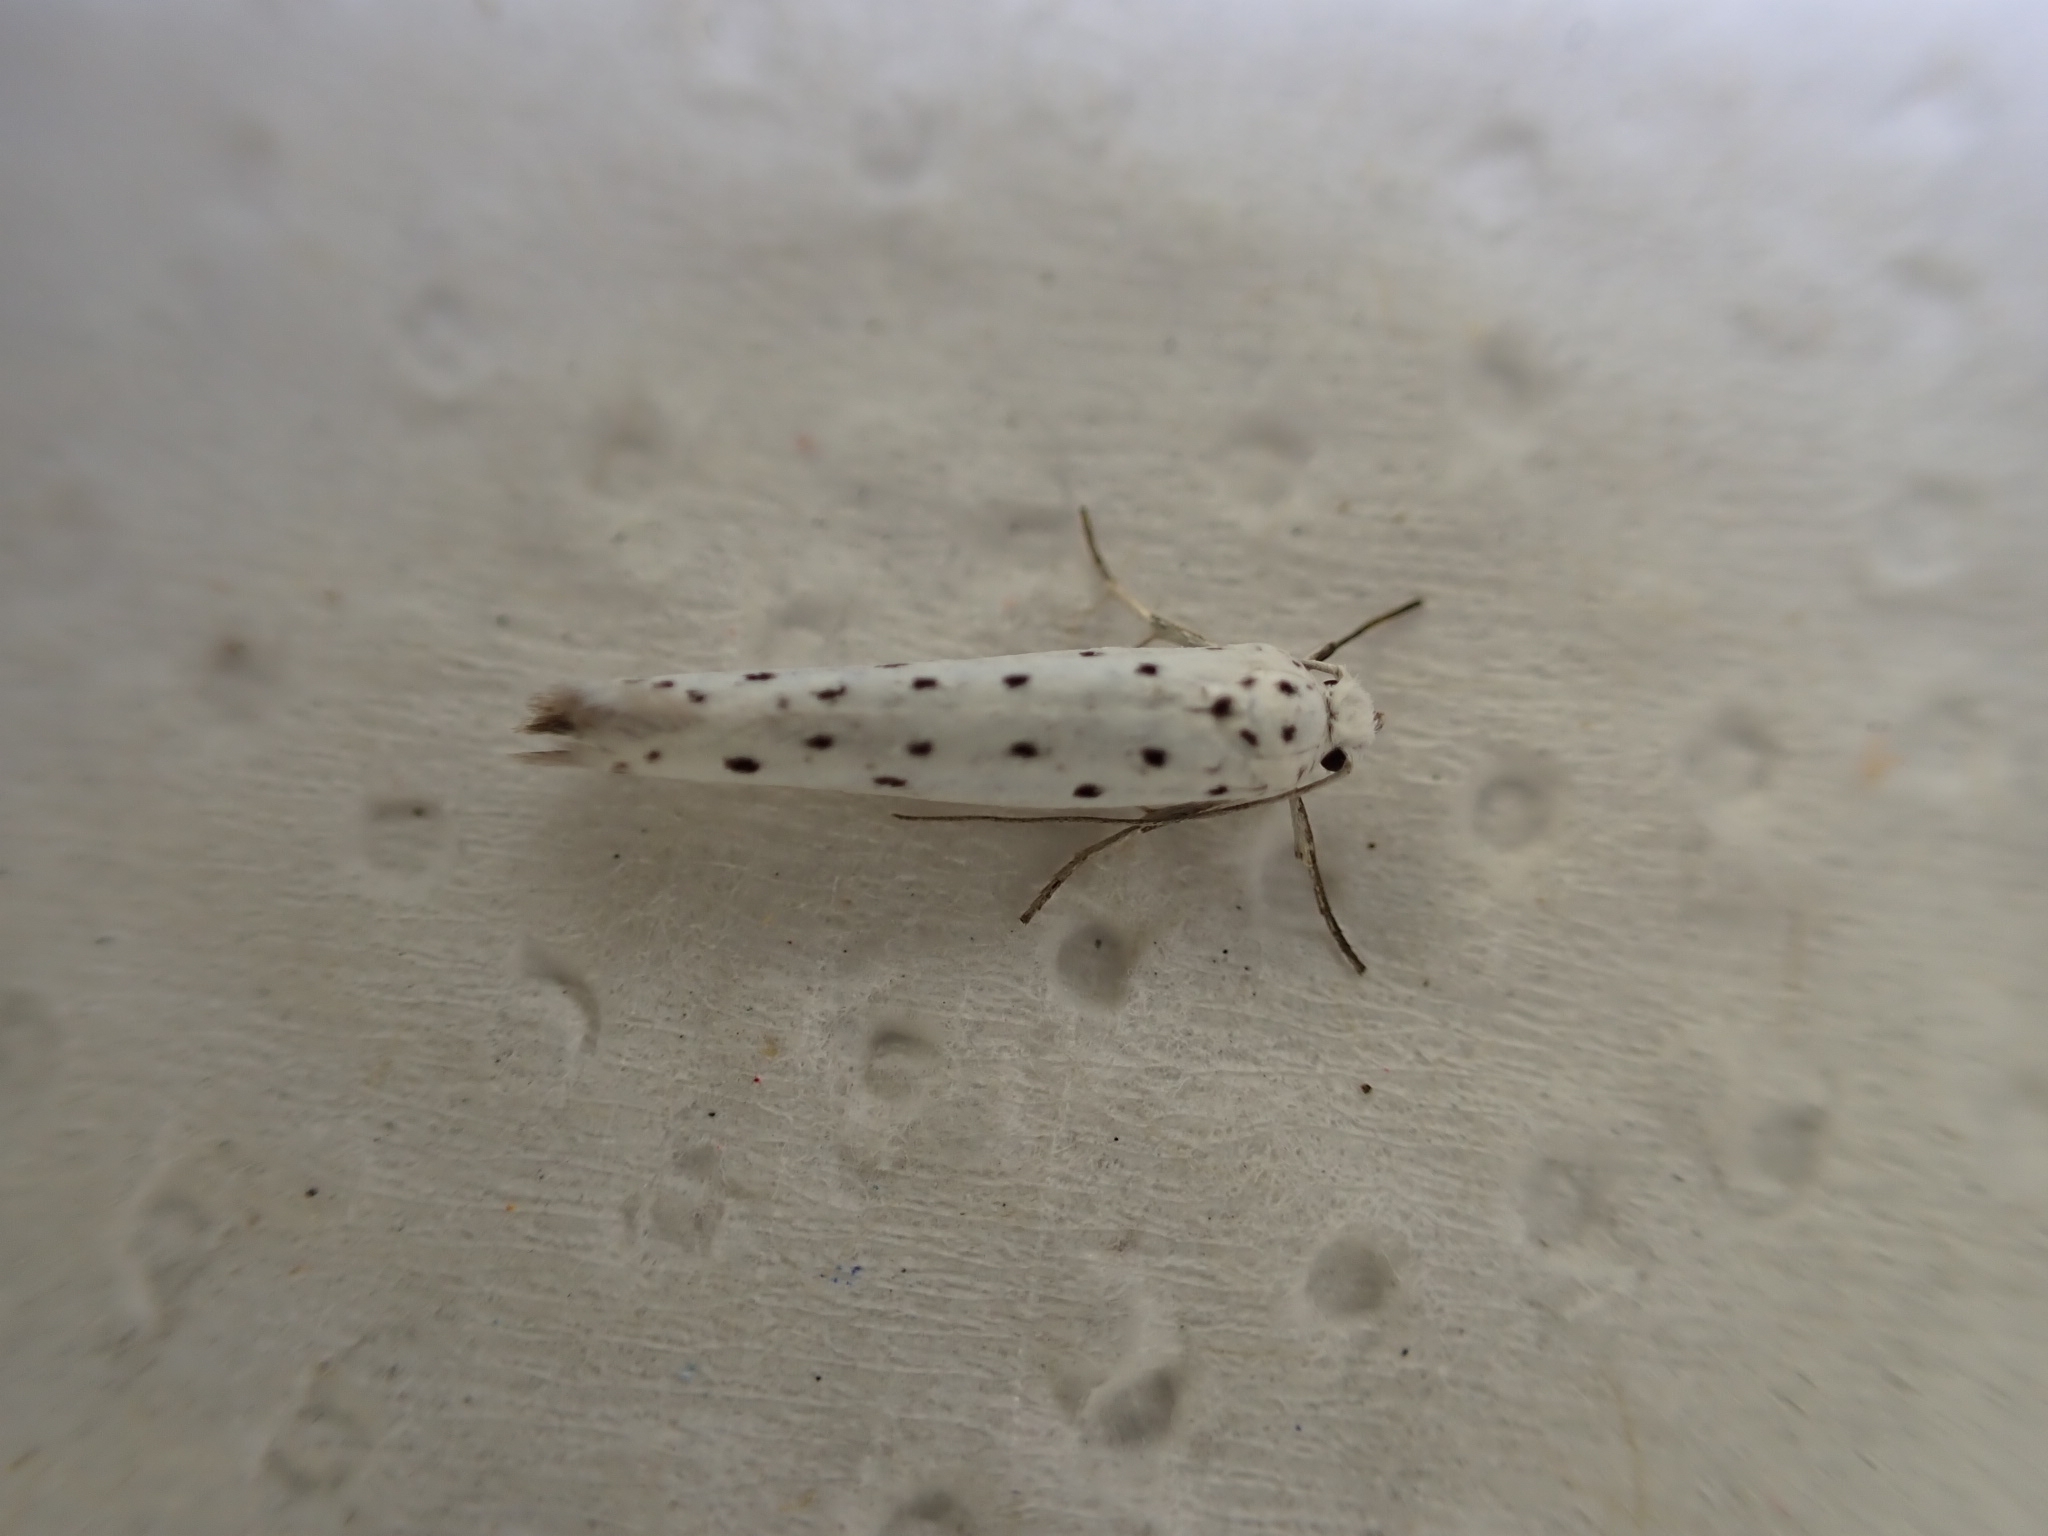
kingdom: Animalia
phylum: Arthropoda
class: Insecta
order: Lepidoptera
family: Yponomeutidae
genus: Yponomeuta
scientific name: Yponomeuta
